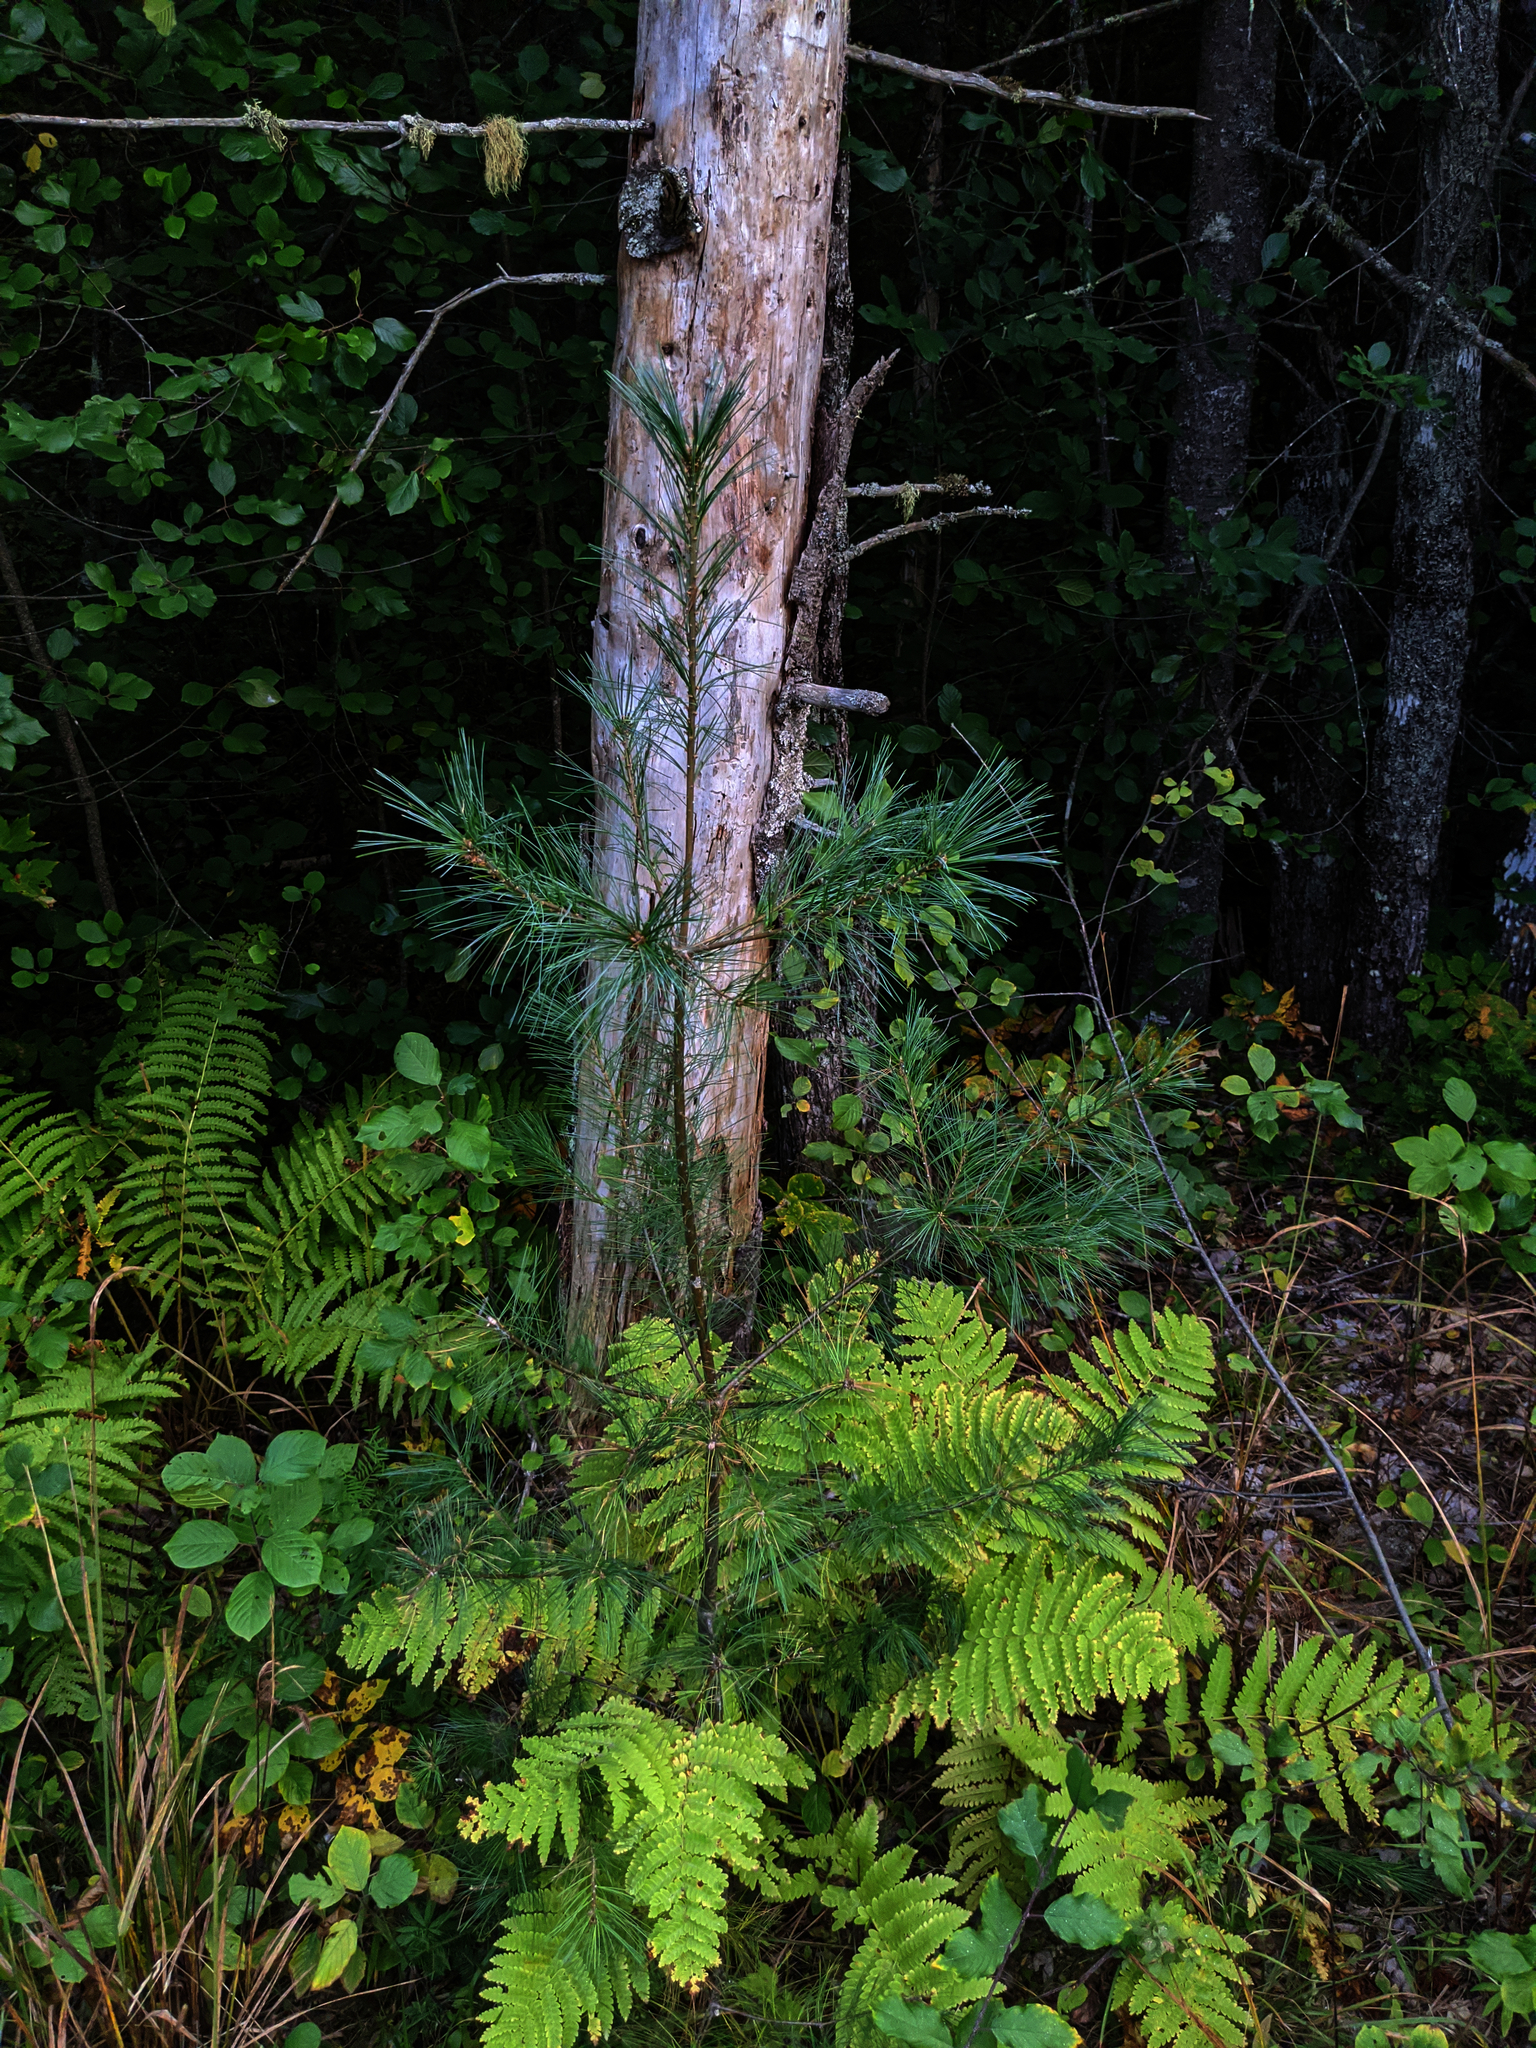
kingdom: Plantae
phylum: Tracheophyta
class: Pinopsida
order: Pinales
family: Pinaceae
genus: Pinus
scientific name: Pinus strobus
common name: Weymouth pine
